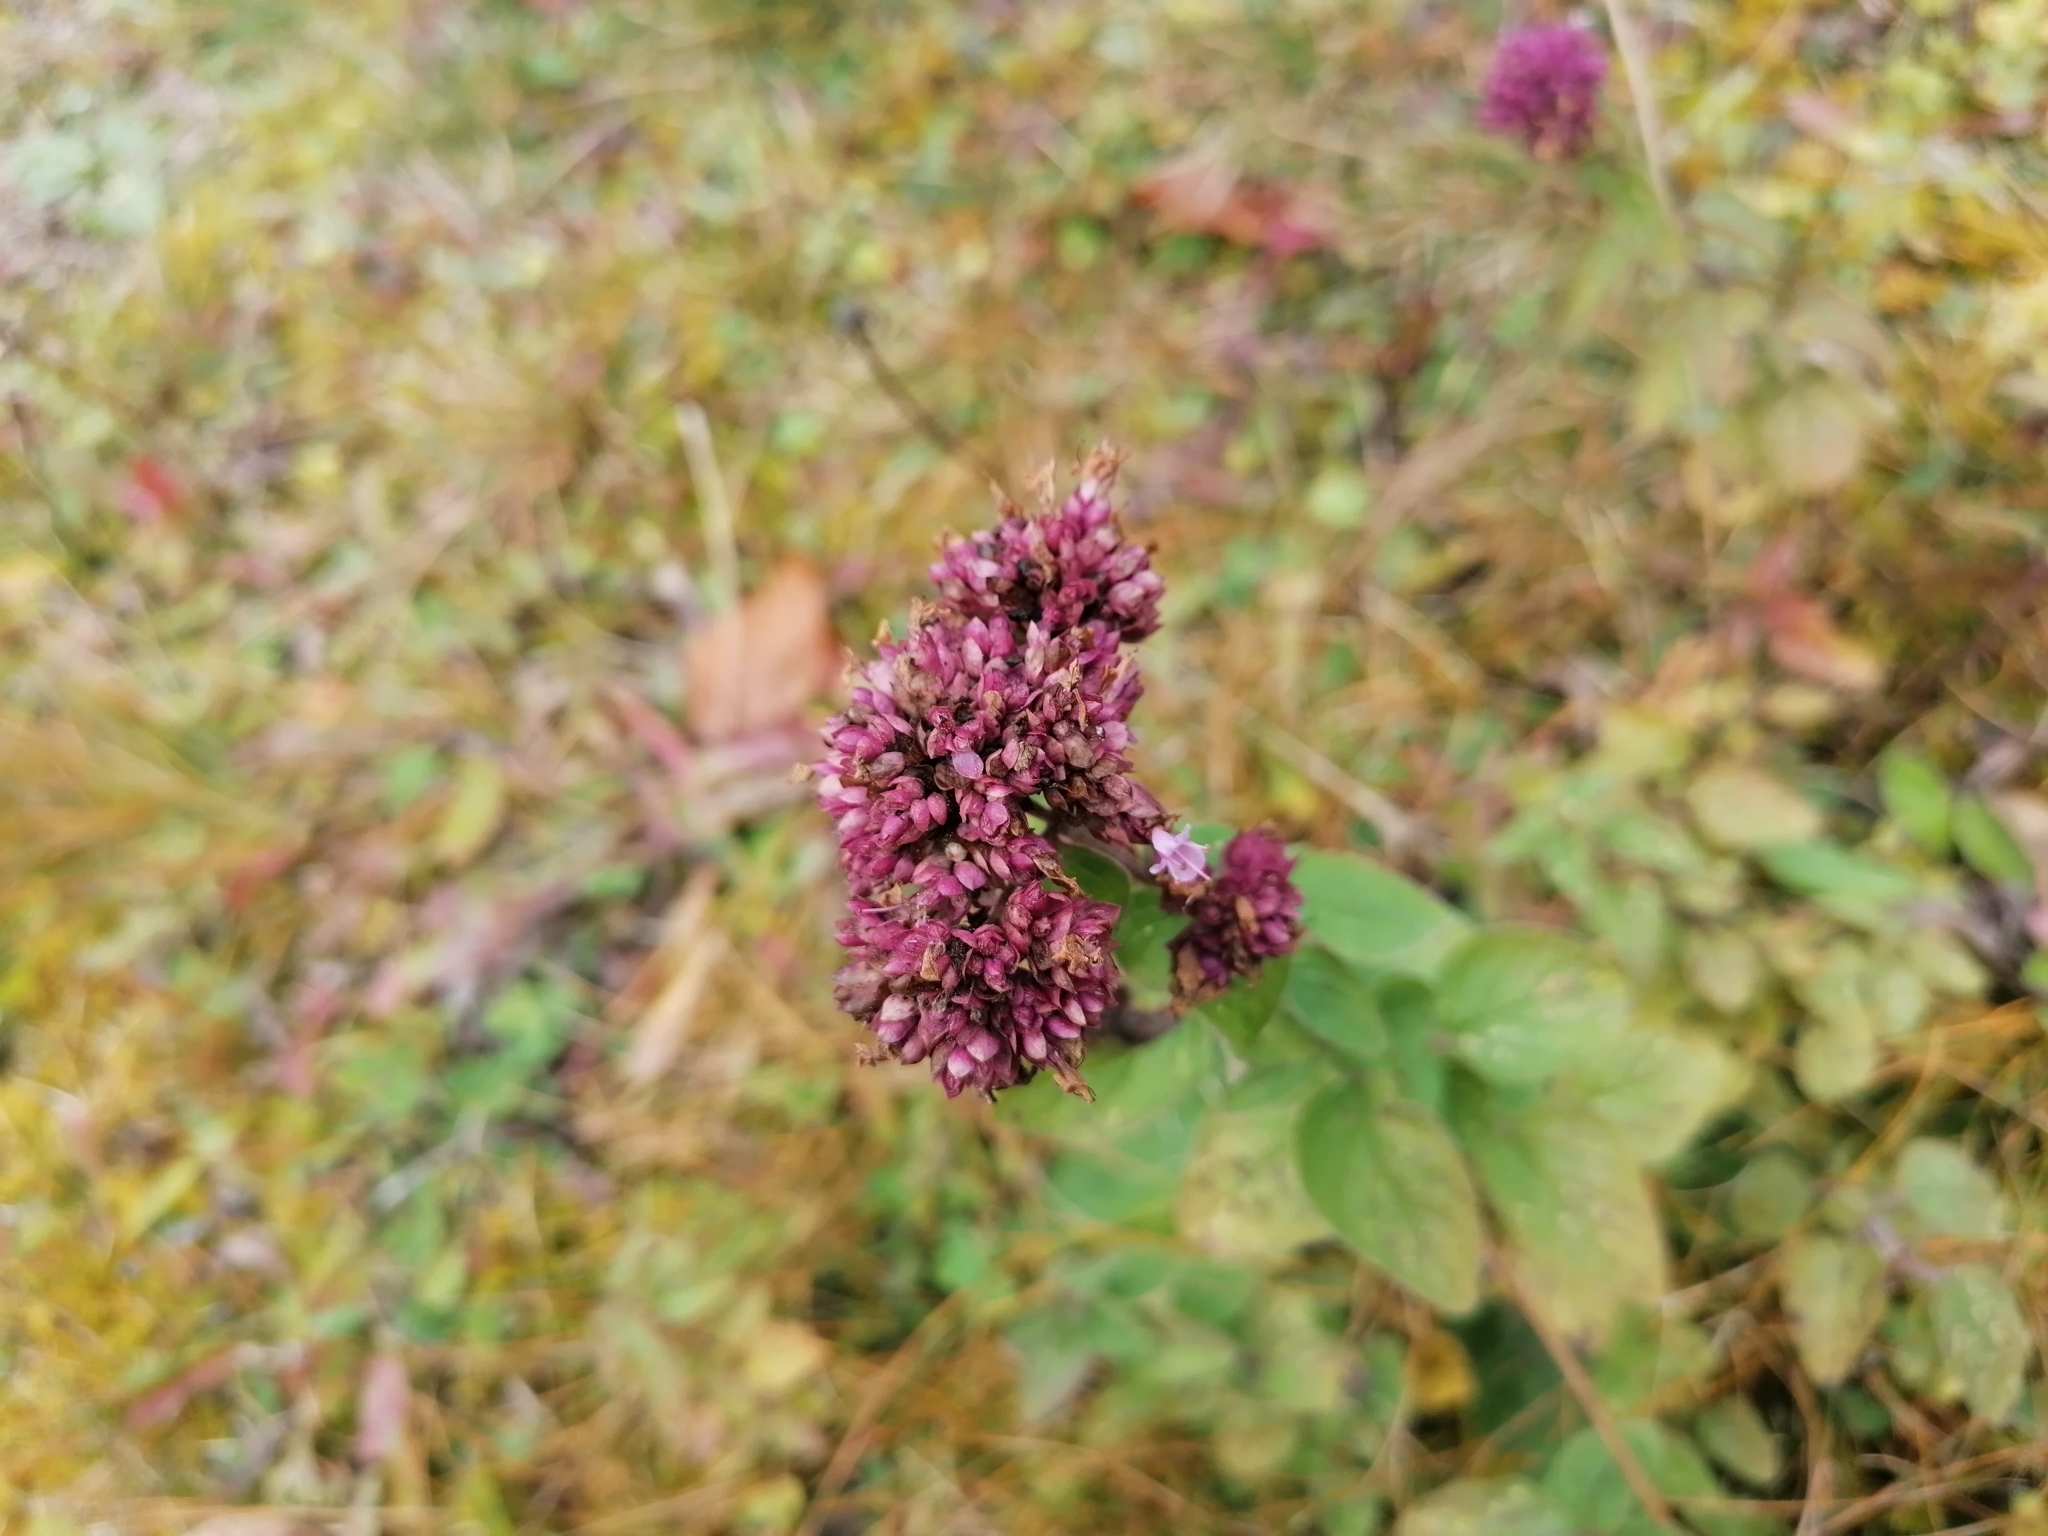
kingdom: Plantae
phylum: Tracheophyta
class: Magnoliopsida
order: Lamiales
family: Lamiaceae
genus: Origanum
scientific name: Origanum vulgare
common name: Wild marjoram
